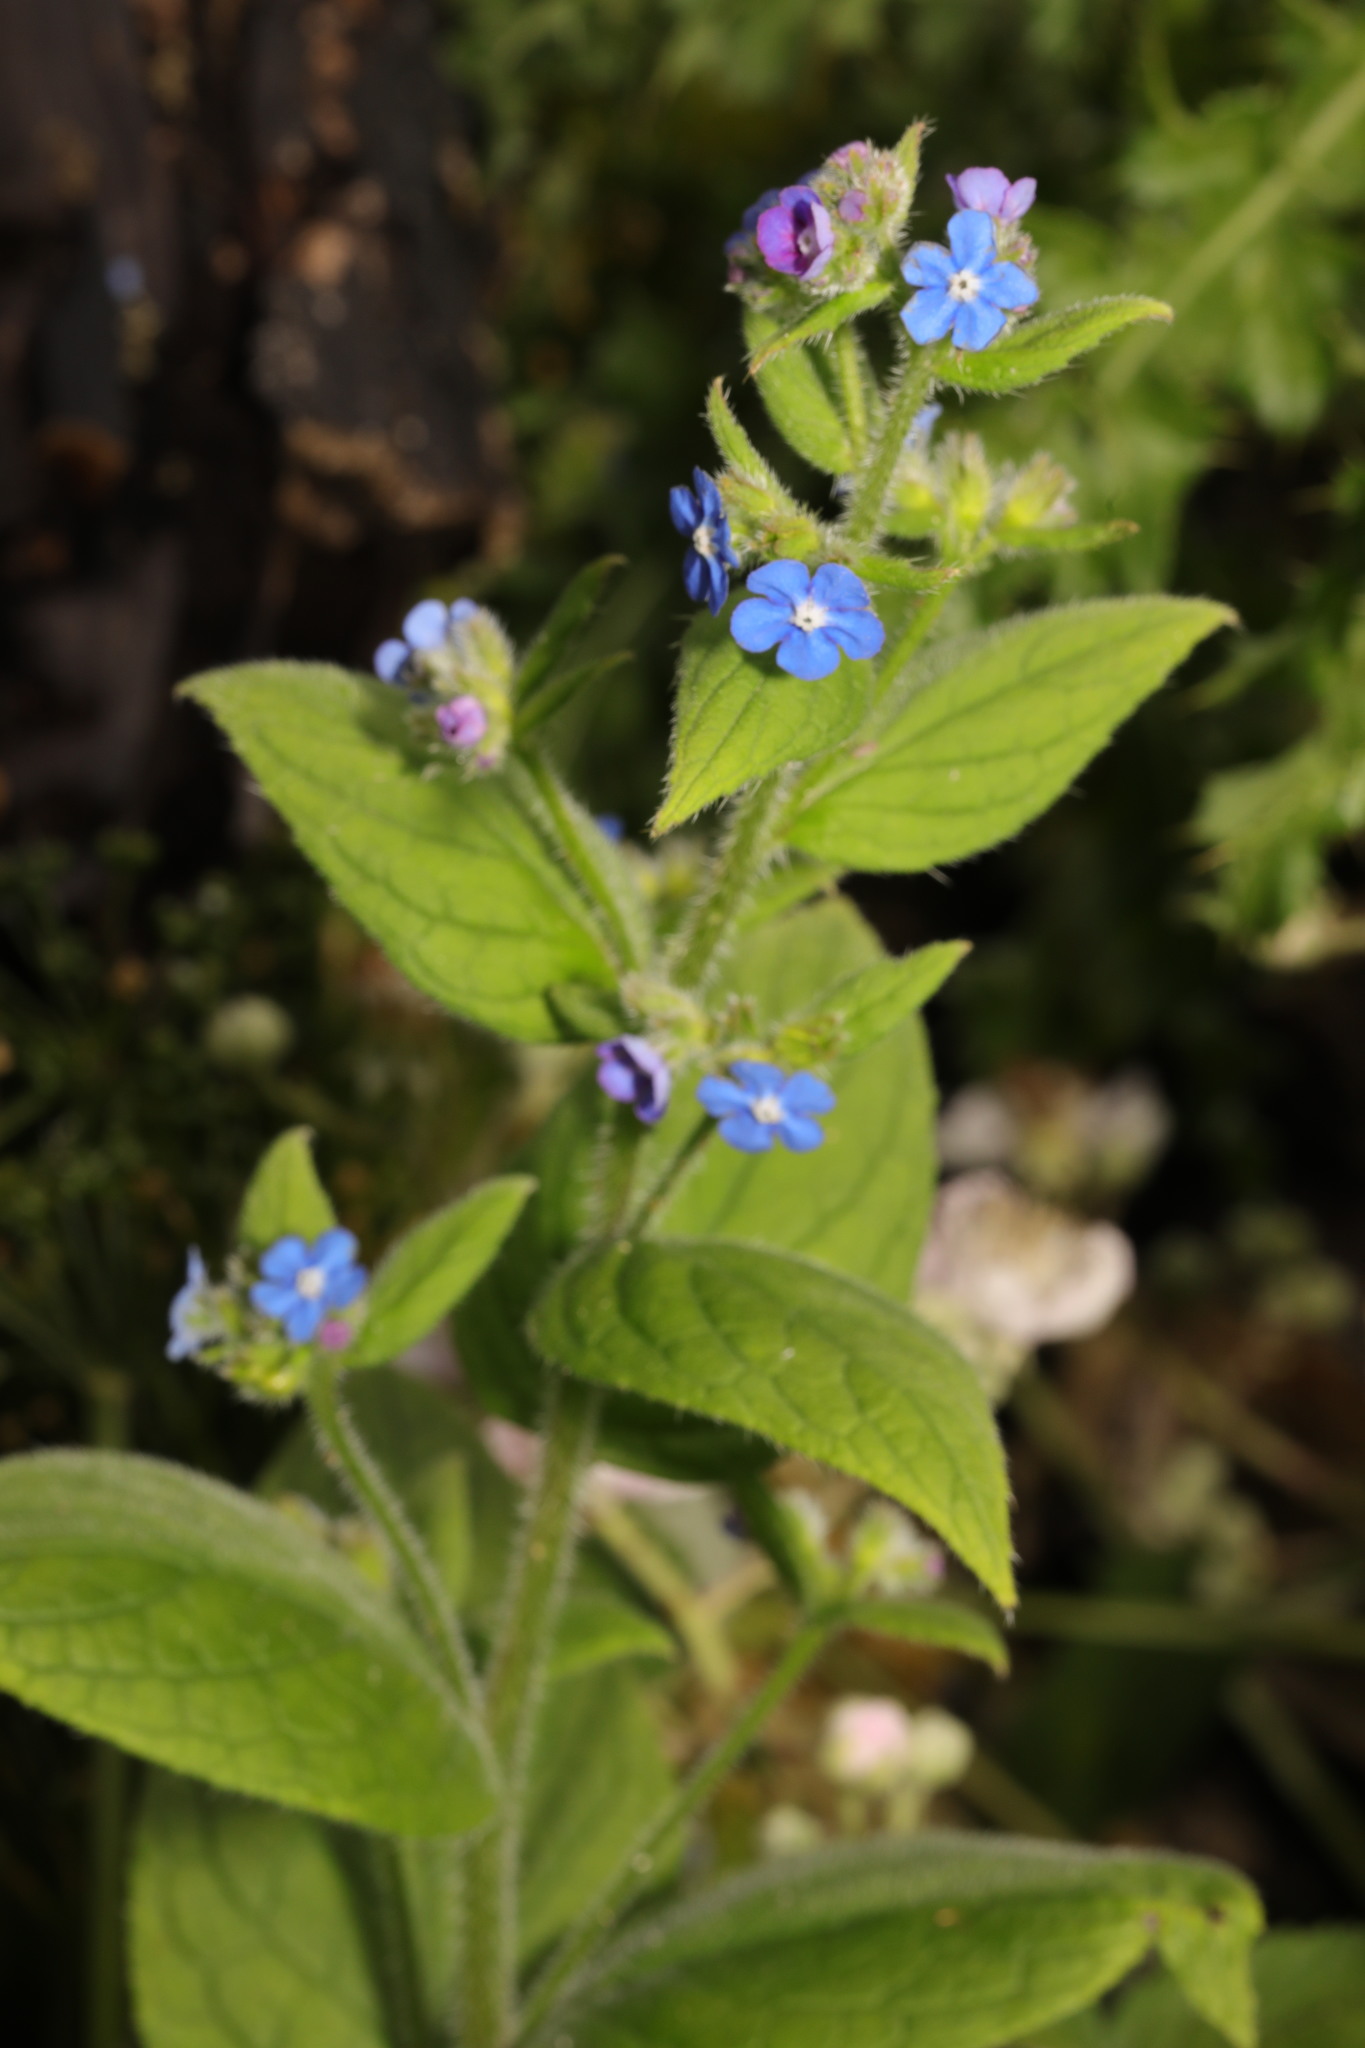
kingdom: Plantae
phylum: Tracheophyta
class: Magnoliopsida
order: Boraginales
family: Boraginaceae
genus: Pentaglottis
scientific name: Pentaglottis sempervirens
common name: Green alkanet
